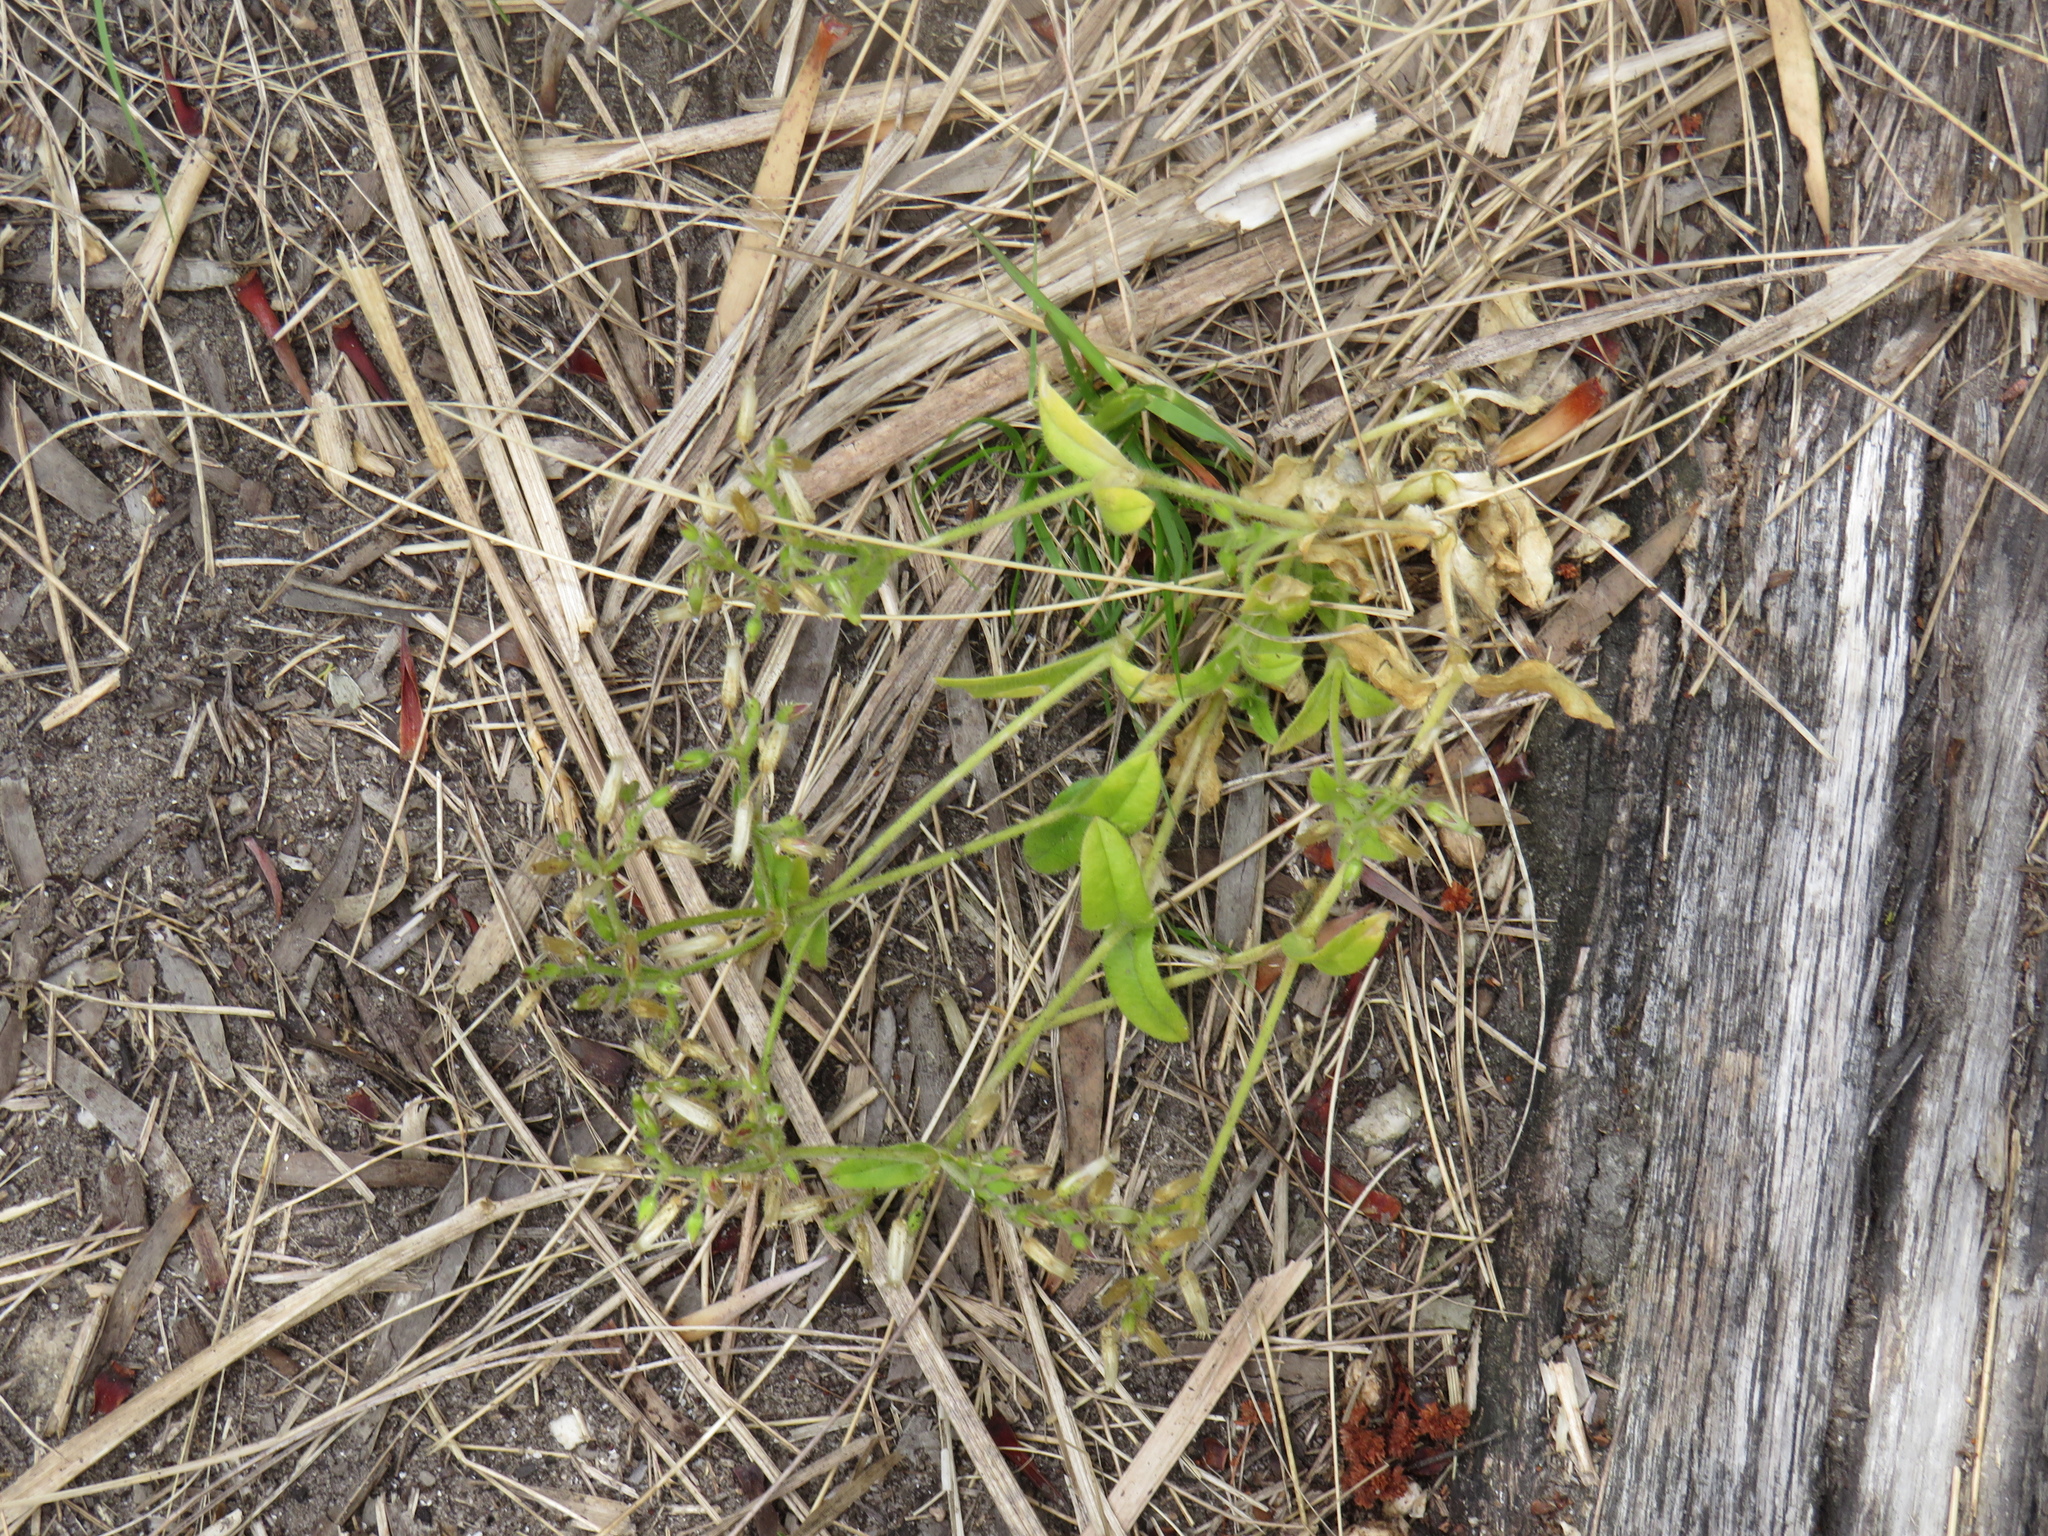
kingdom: Plantae
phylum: Tracheophyta
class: Magnoliopsida
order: Caryophyllales
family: Caryophyllaceae
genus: Cerastium
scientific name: Cerastium capense
